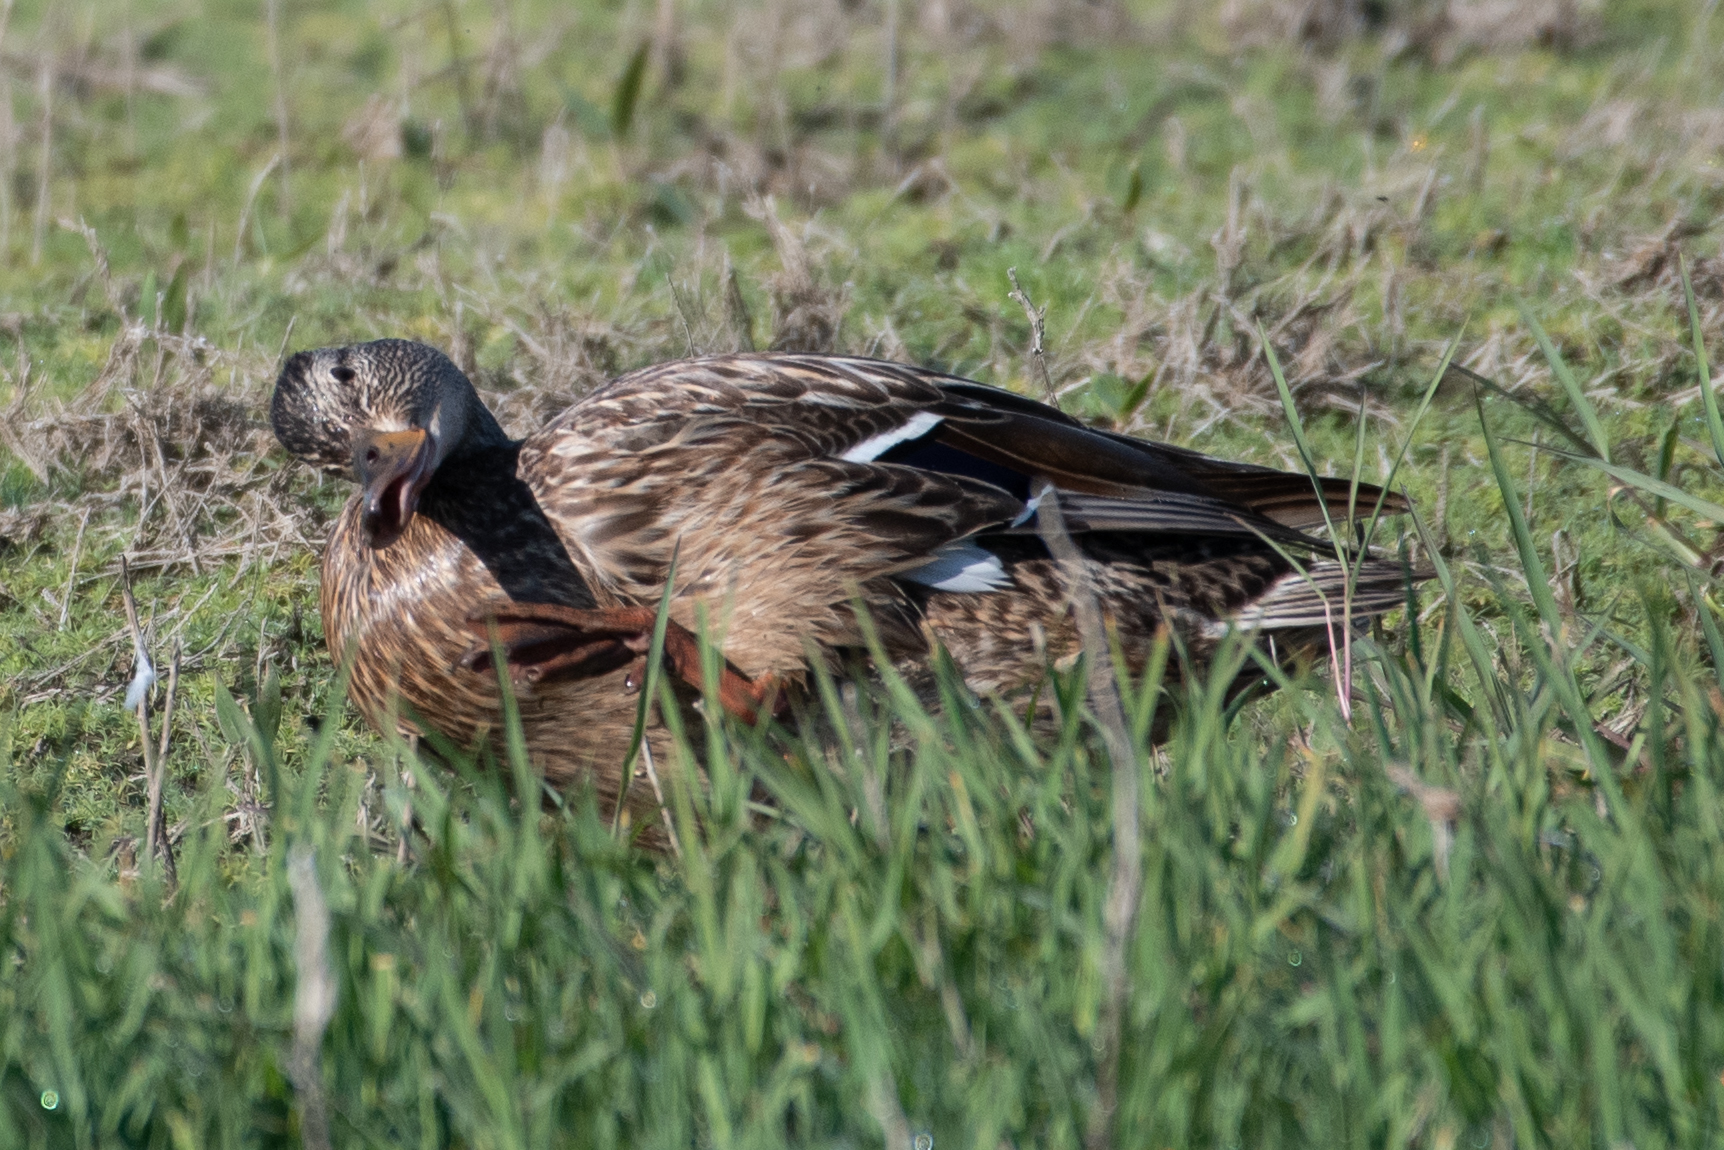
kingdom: Animalia
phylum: Chordata
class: Aves
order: Anseriformes
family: Anatidae
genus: Anas
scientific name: Anas platyrhynchos
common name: Mallard
